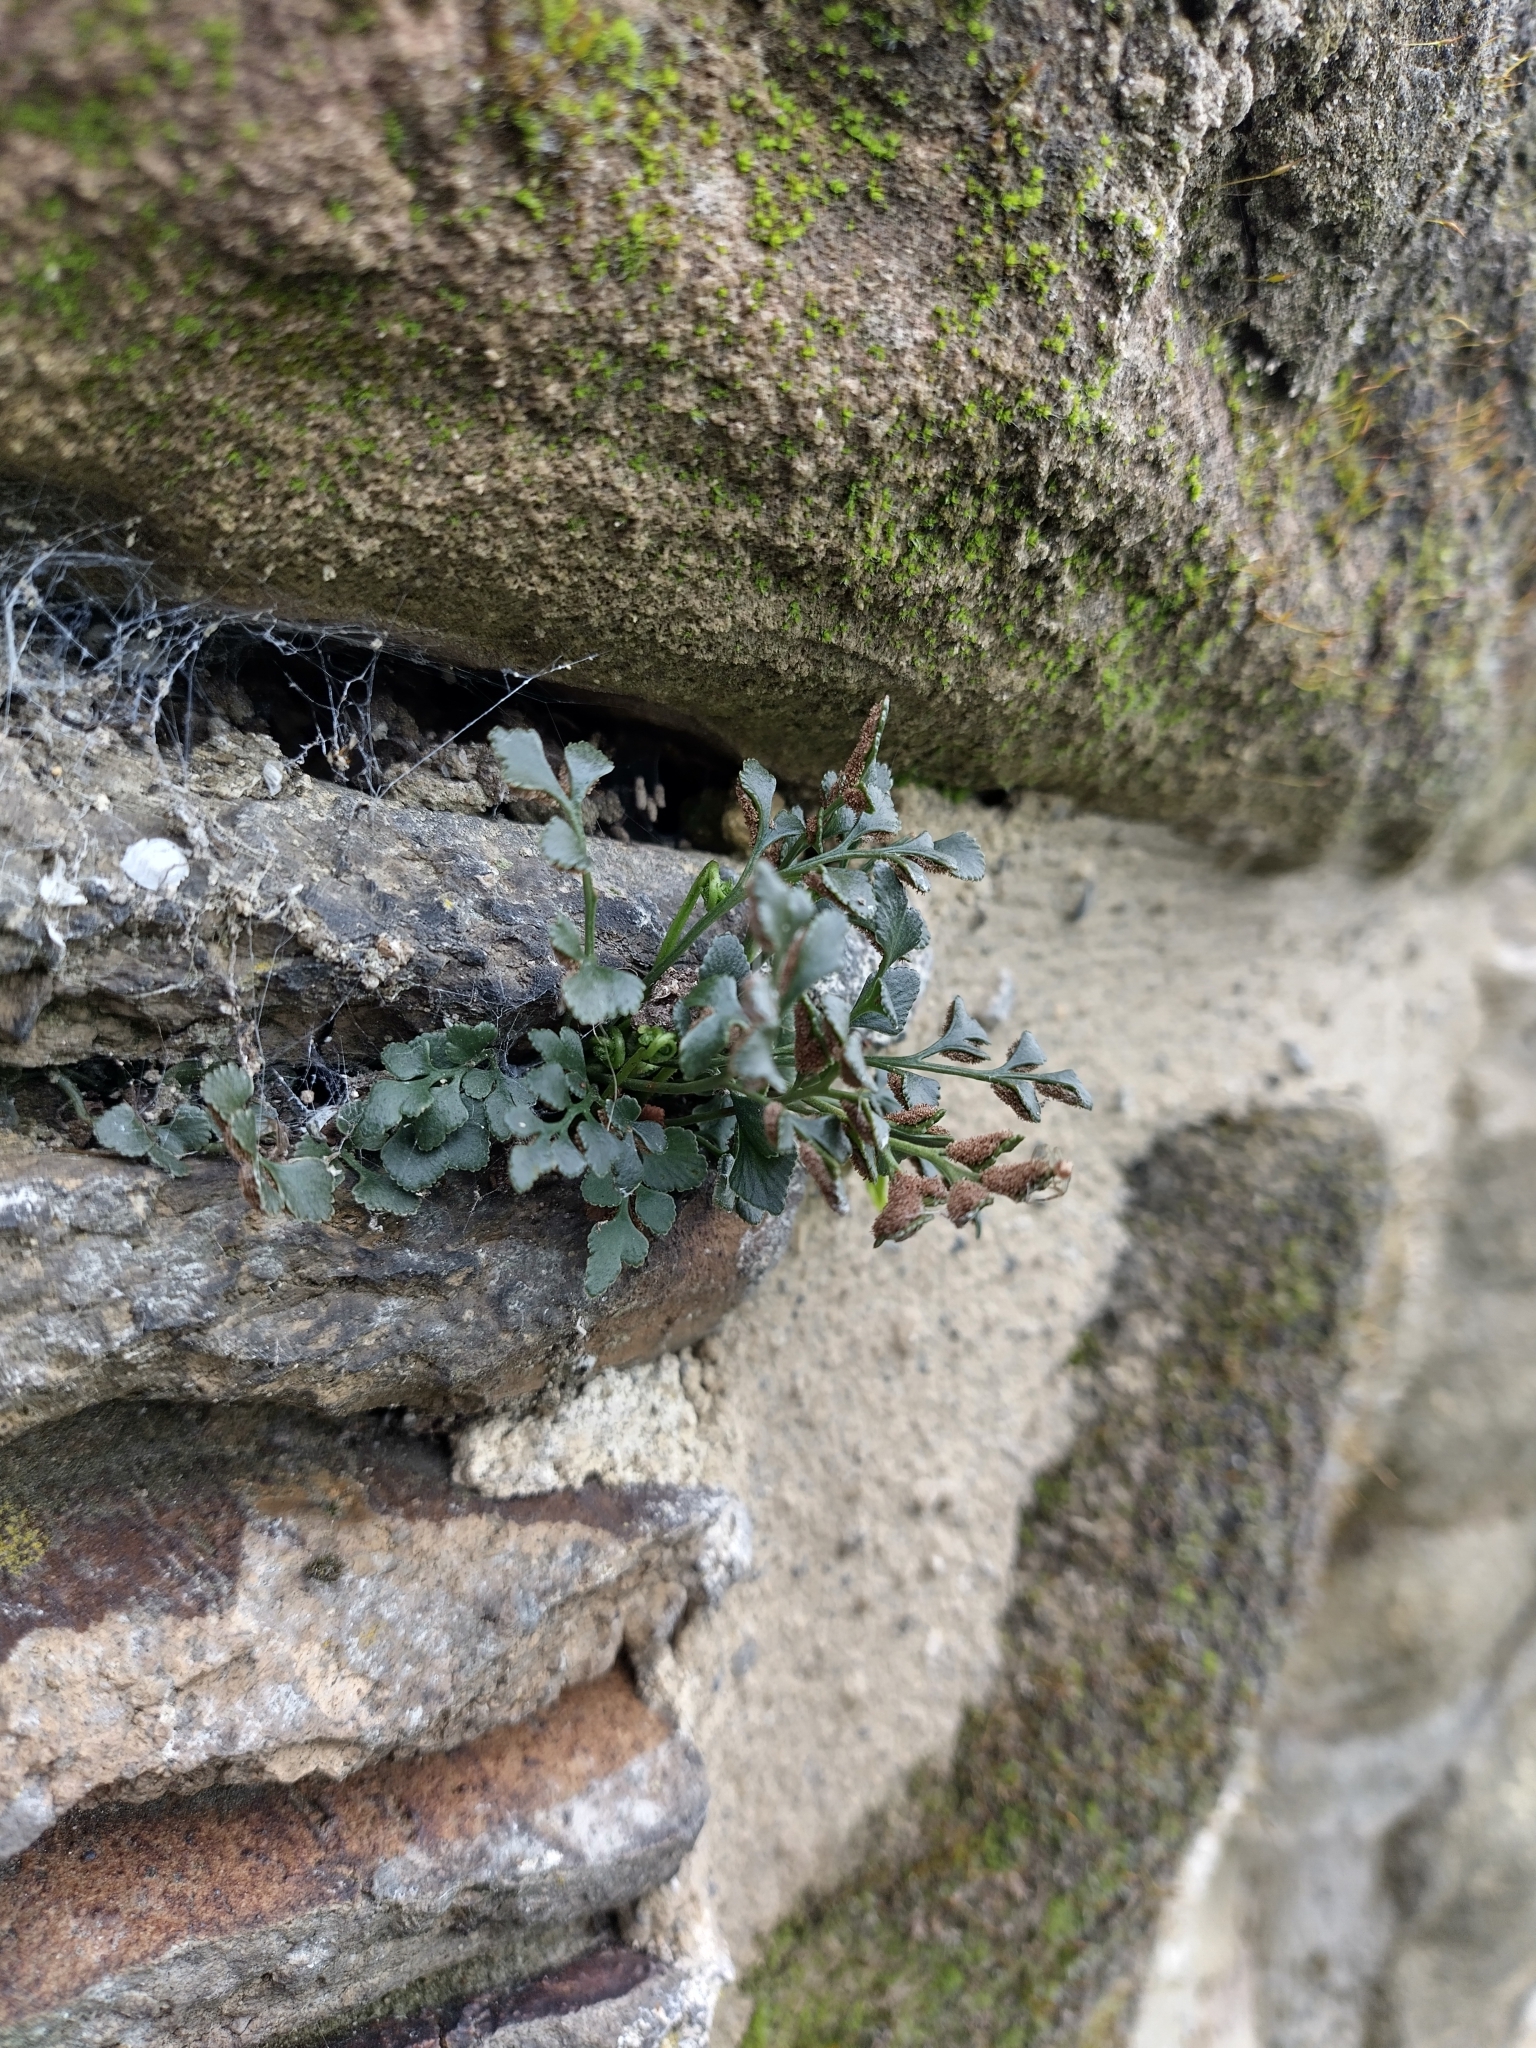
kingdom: Plantae
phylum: Tracheophyta
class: Polypodiopsida
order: Polypodiales
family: Aspleniaceae
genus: Asplenium
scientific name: Asplenium ruta-muraria
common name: Wall-rue
